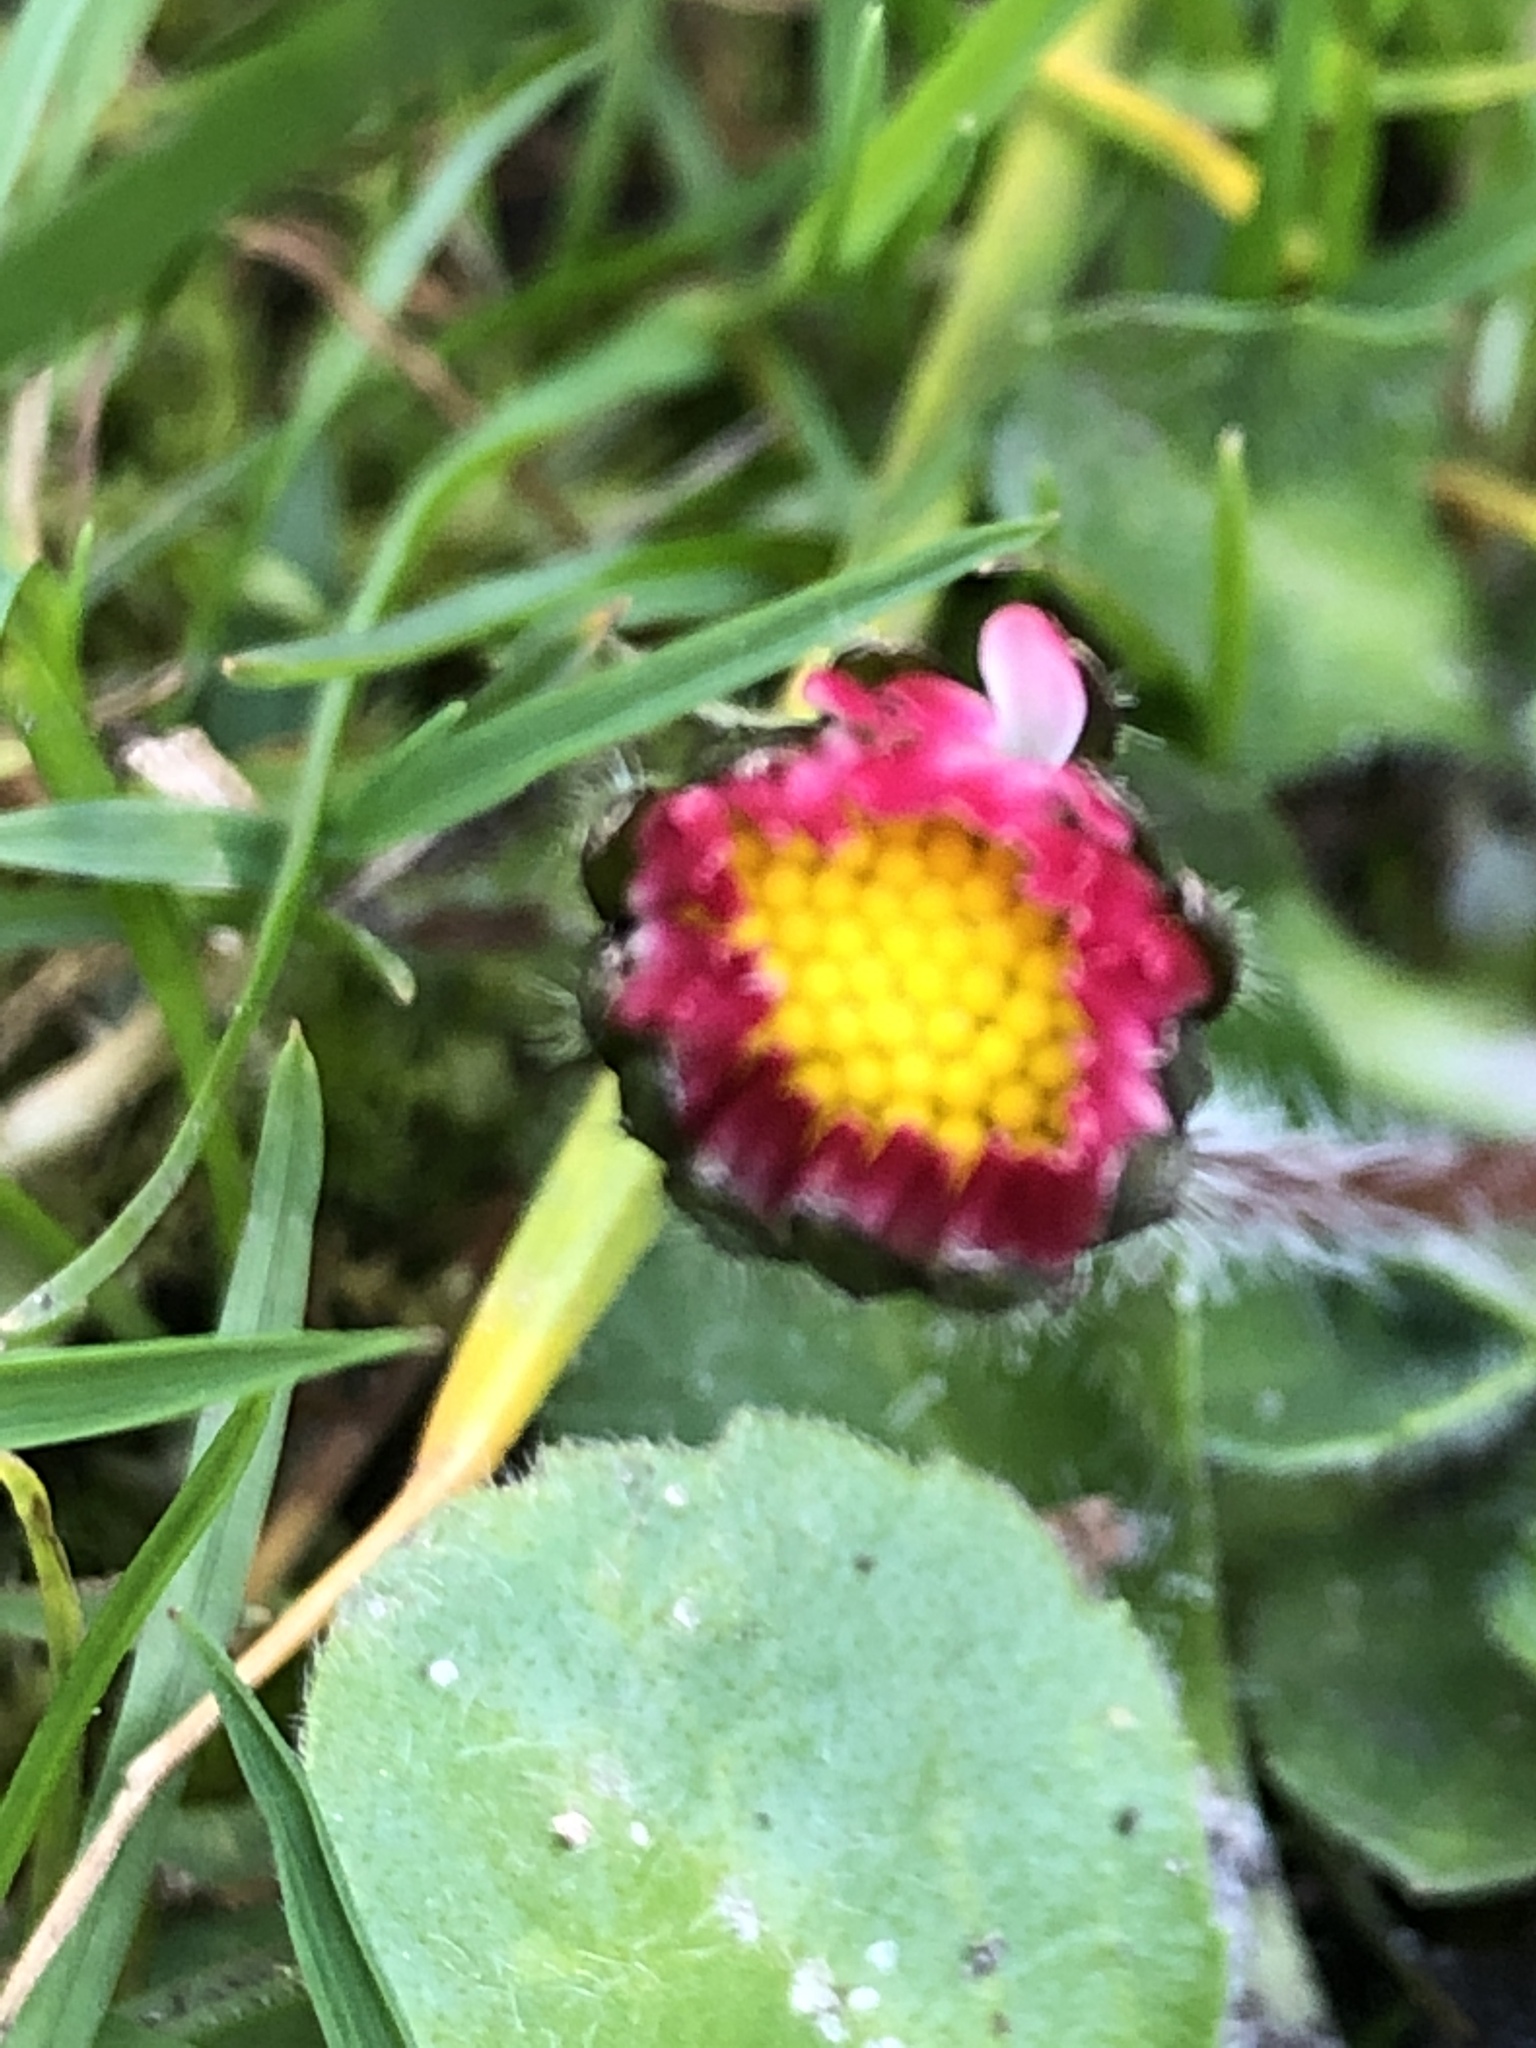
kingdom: Plantae
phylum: Tracheophyta
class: Magnoliopsida
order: Asterales
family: Asteraceae
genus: Bellis
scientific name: Bellis perennis
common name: Lawndaisy
